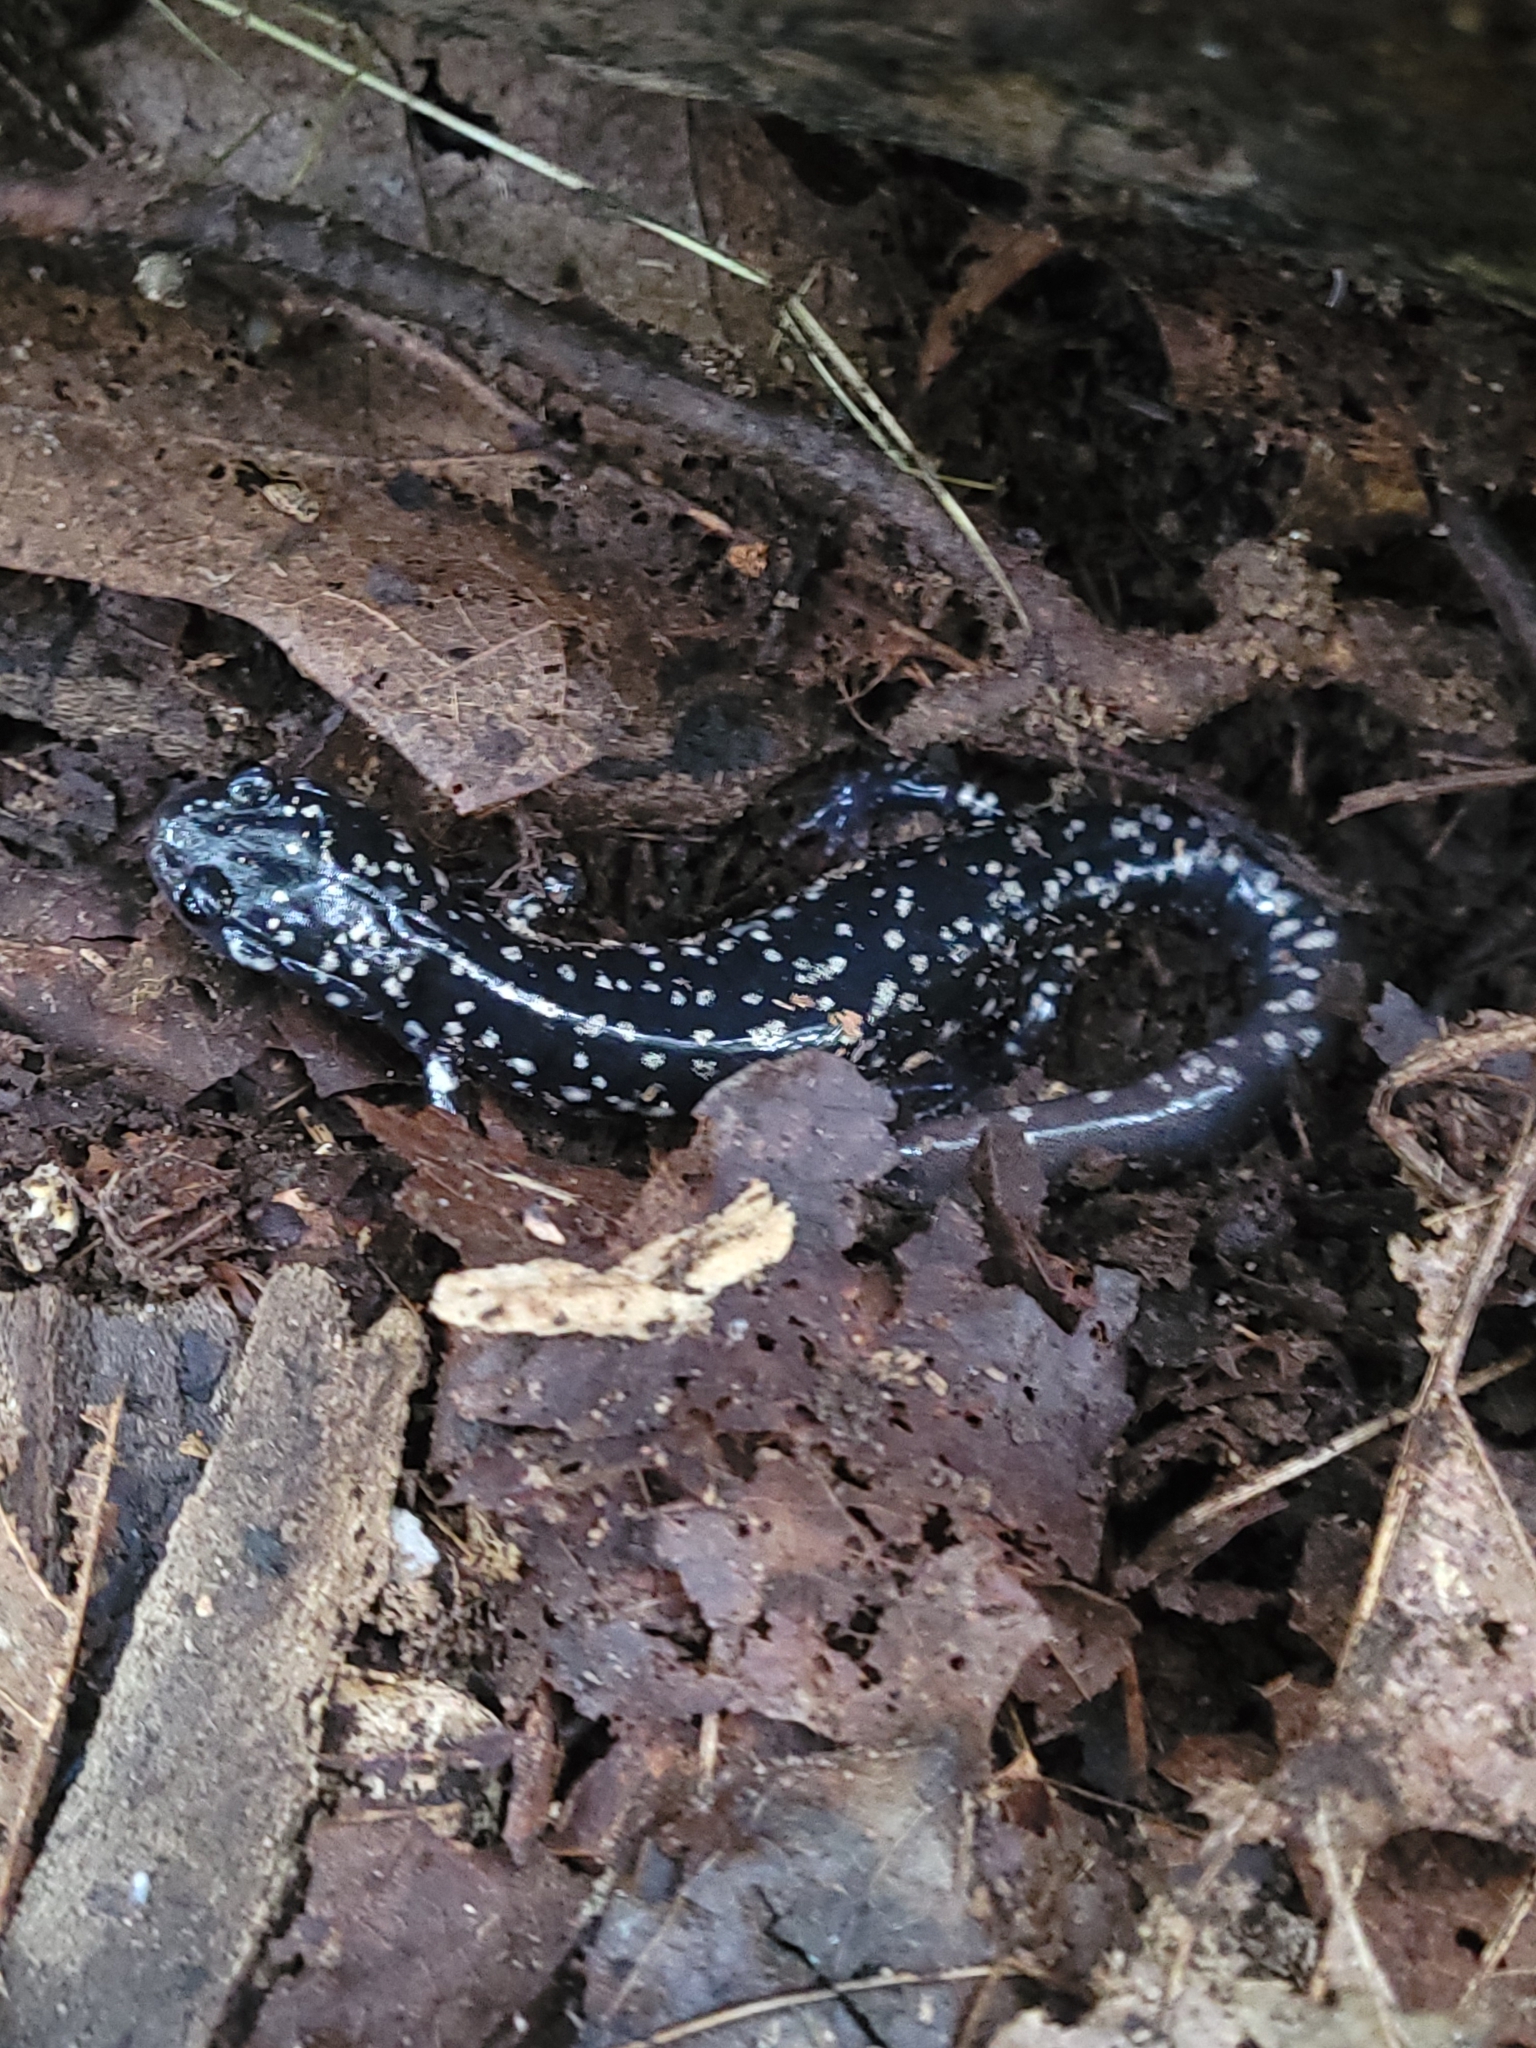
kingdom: Animalia
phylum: Chordata
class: Amphibia
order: Caudata
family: Plethodontidae
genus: Plethodon
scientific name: Plethodon glutinosus
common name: Northern slimy salamander
